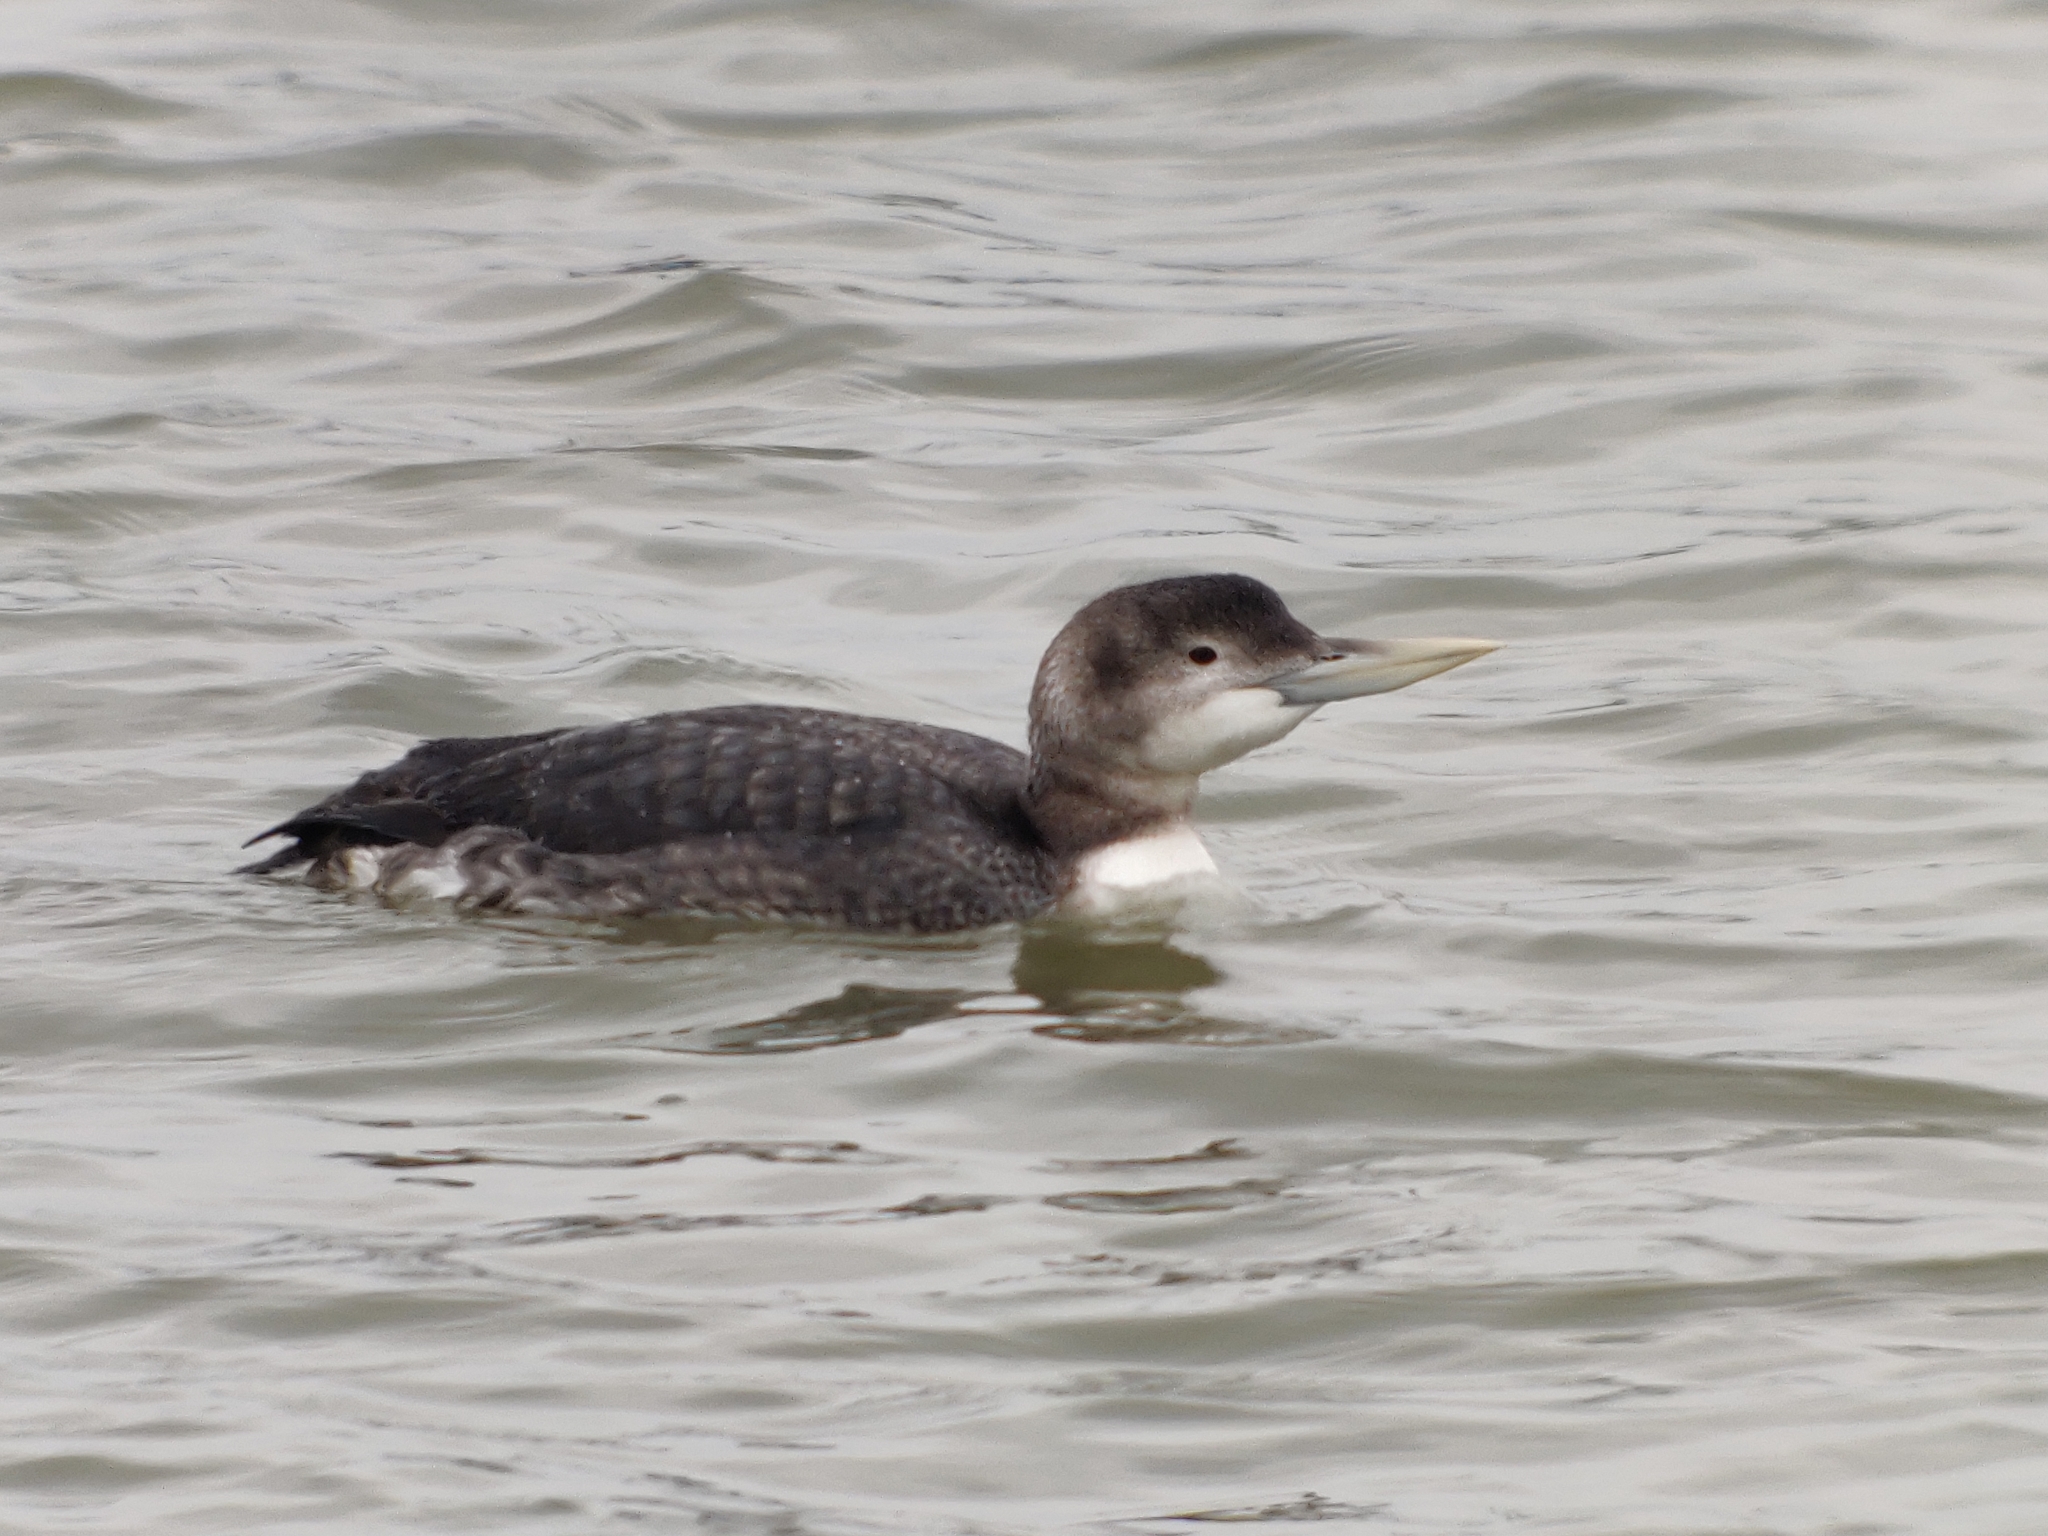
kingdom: Animalia
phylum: Chordata
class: Aves
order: Gaviiformes
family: Gaviidae
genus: Gavia
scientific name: Gavia adamsii
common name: Yellow-billed loon
